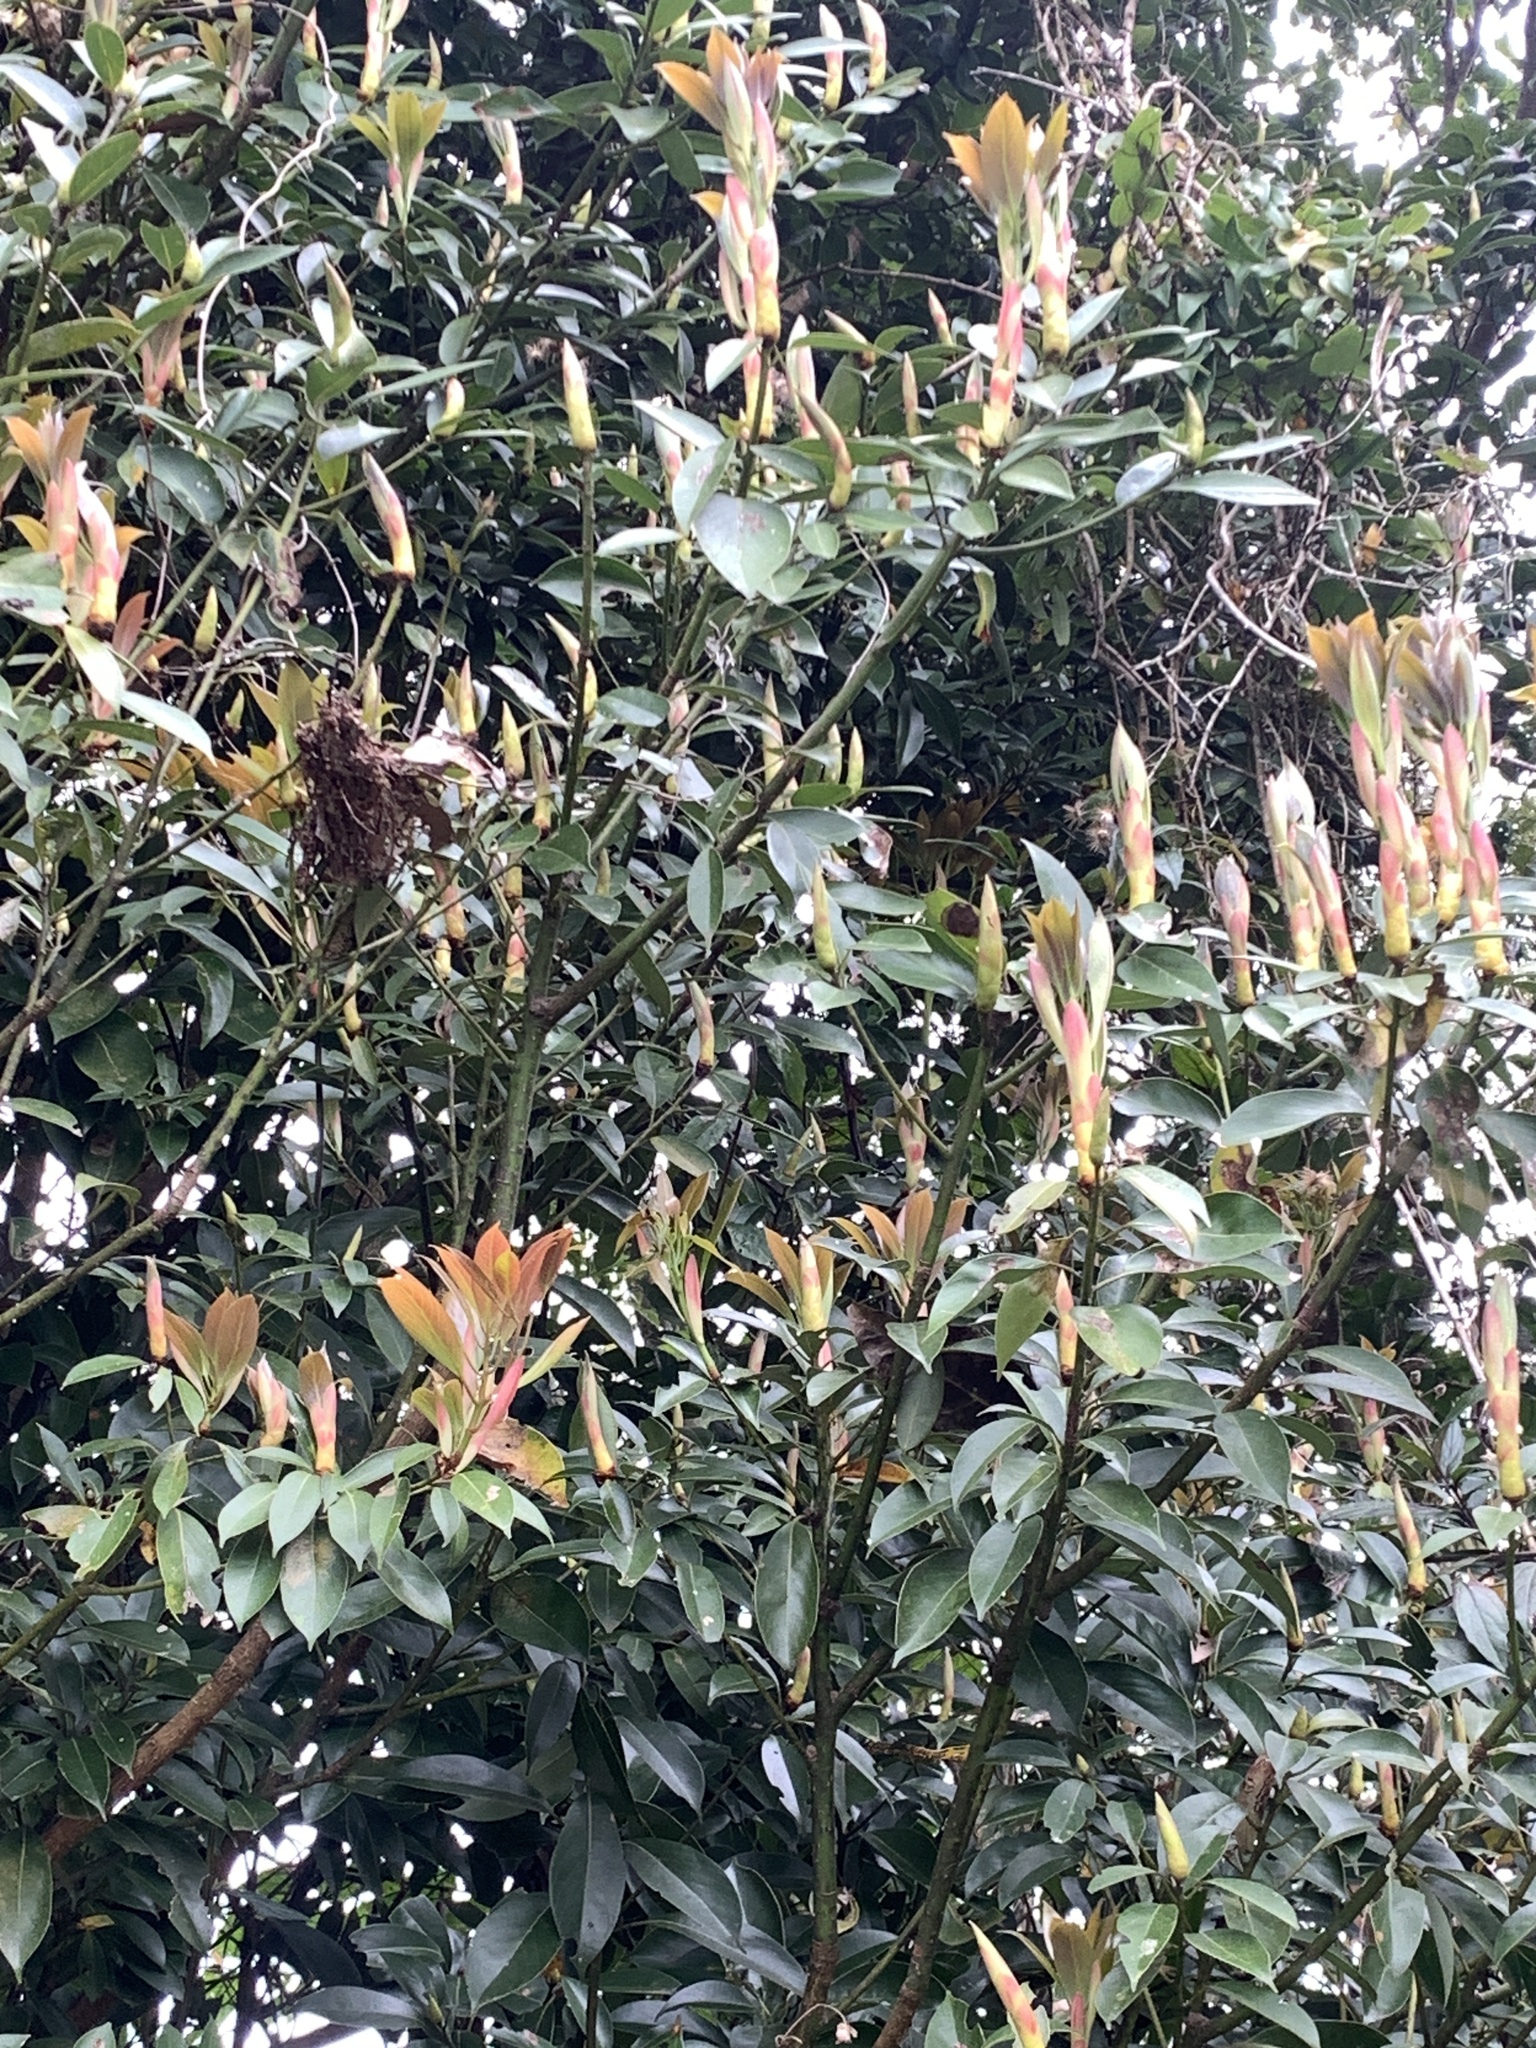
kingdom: Plantae
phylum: Tracheophyta
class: Magnoliopsida
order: Laurales
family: Lauraceae
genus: Machilus
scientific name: Machilus thunbergii
